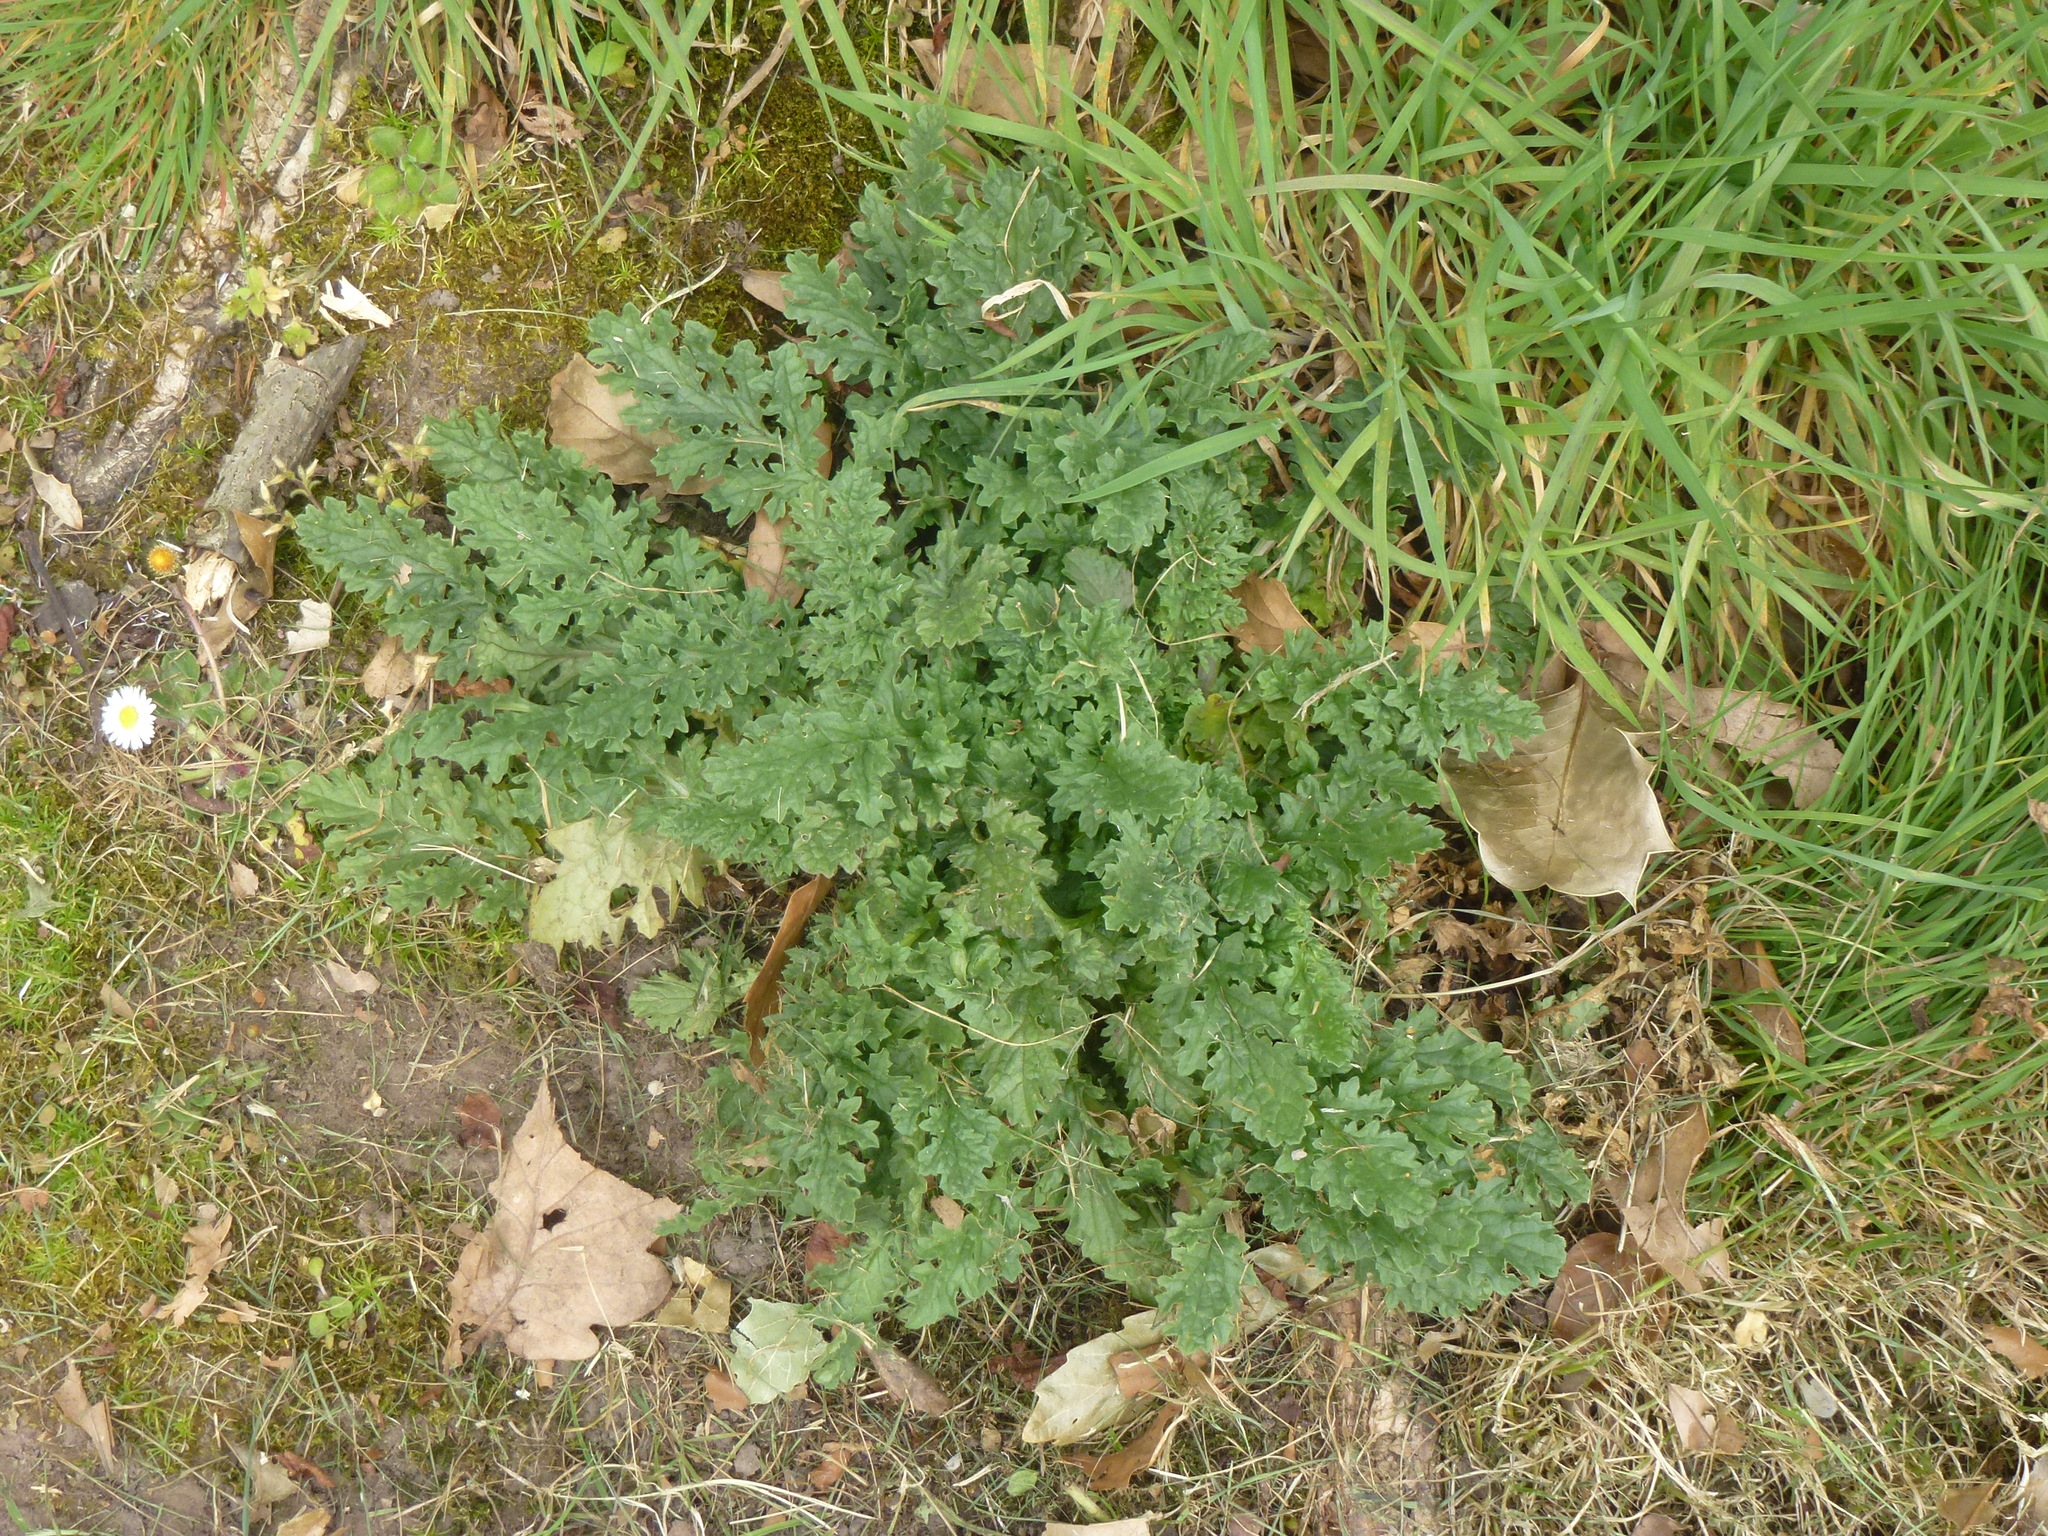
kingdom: Plantae
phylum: Tracheophyta
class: Magnoliopsida
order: Asterales
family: Asteraceae
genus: Jacobaea
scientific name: Jacobaea vulgaris
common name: Stinking willie
